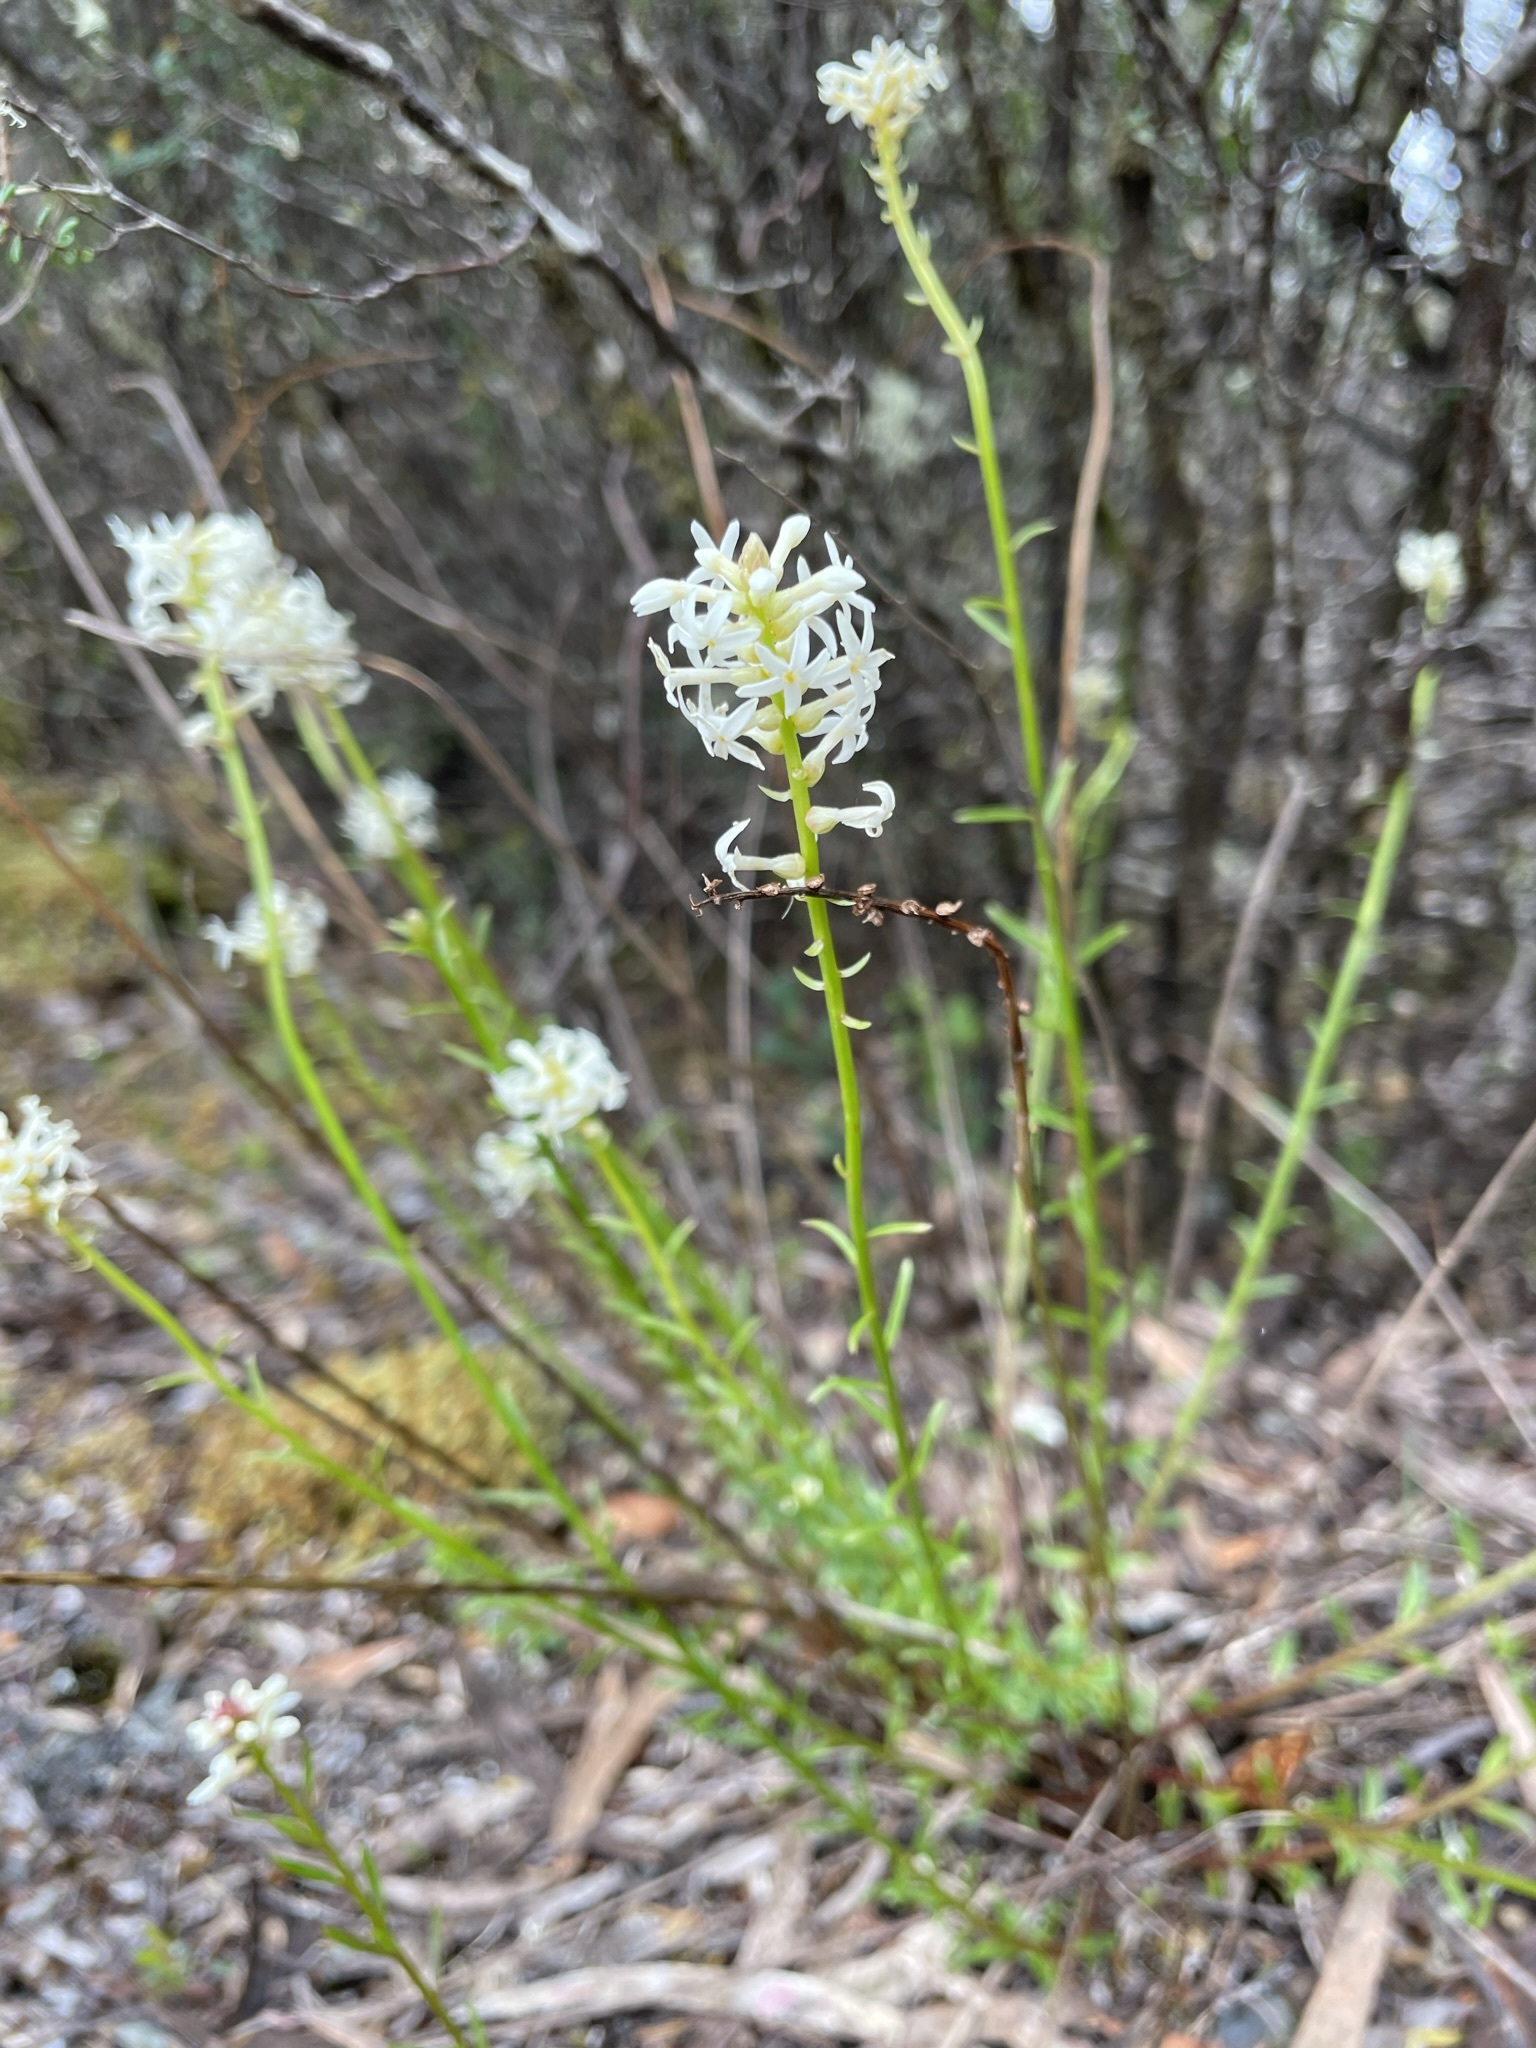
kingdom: Plantae
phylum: Tracheophyta
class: Magnoliopsida
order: Celastrales
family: Celastraceae
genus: Stackhousia
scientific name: Stackhousia monogyna
